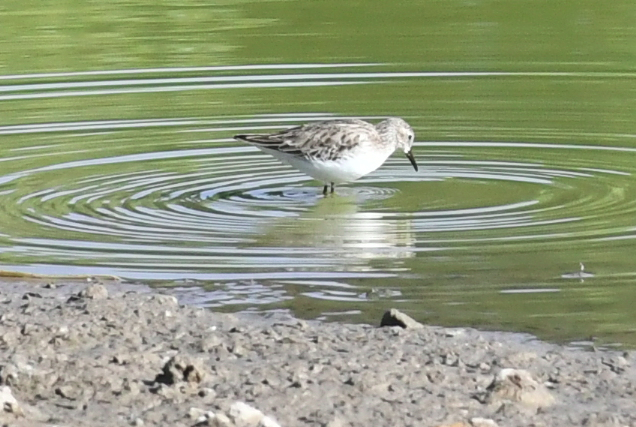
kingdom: Animalia
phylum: Chordata
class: Aves
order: Charadriiformes
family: Scolopacidae
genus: Calidris
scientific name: Calidris minutilla
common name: Least sandpiper
